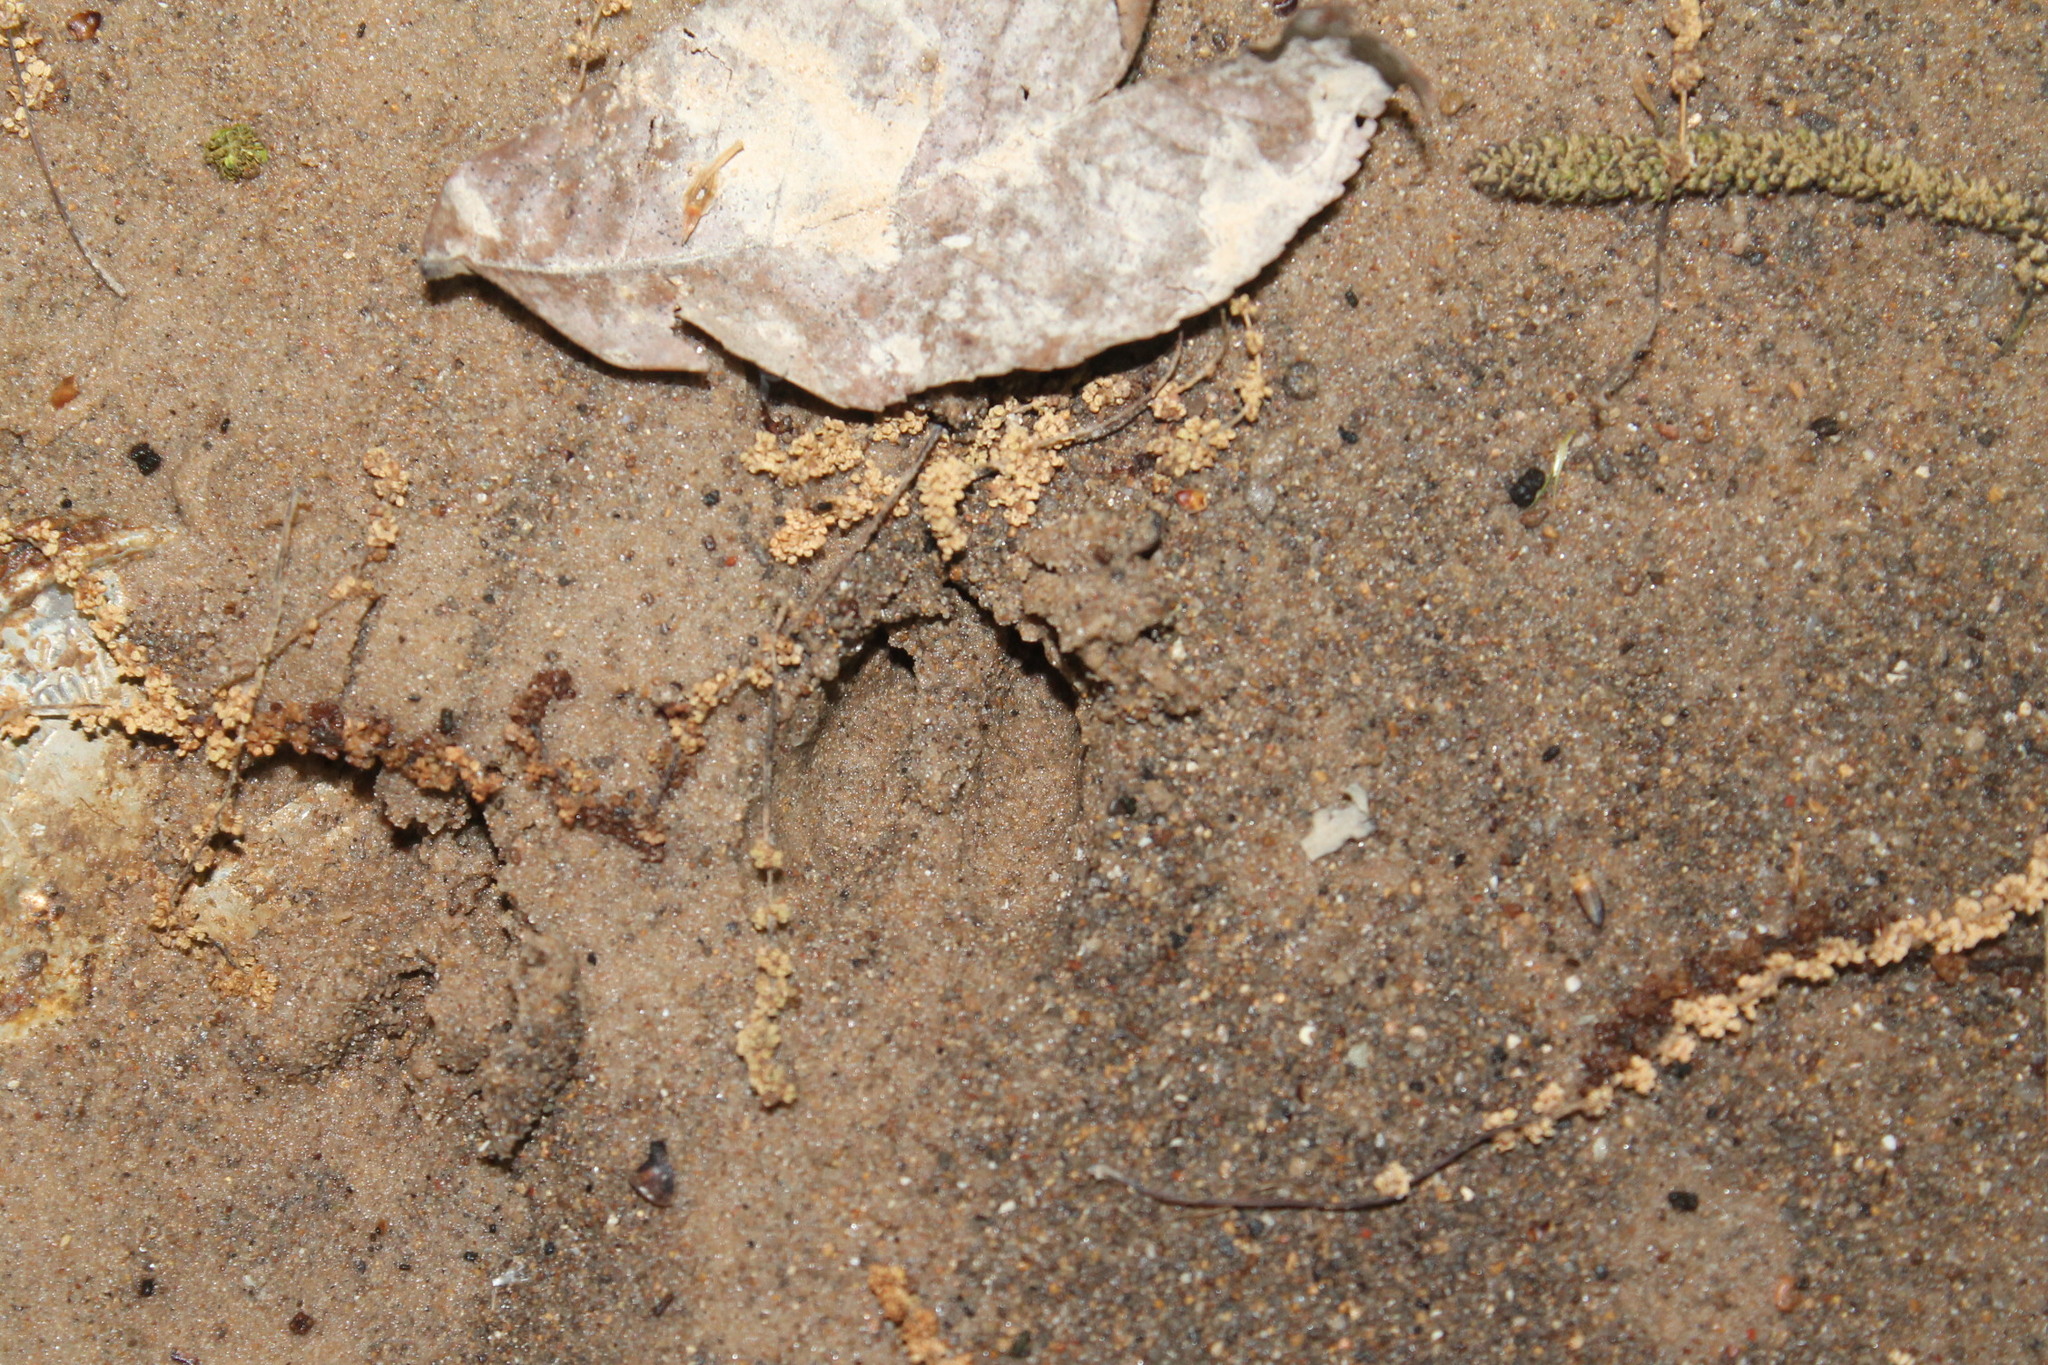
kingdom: Animalia
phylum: Chordata
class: Mammalia
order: Artiodactyla
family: Cervidae
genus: Odocoileus
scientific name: Odocoileus virginianus
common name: White-tailed deer
